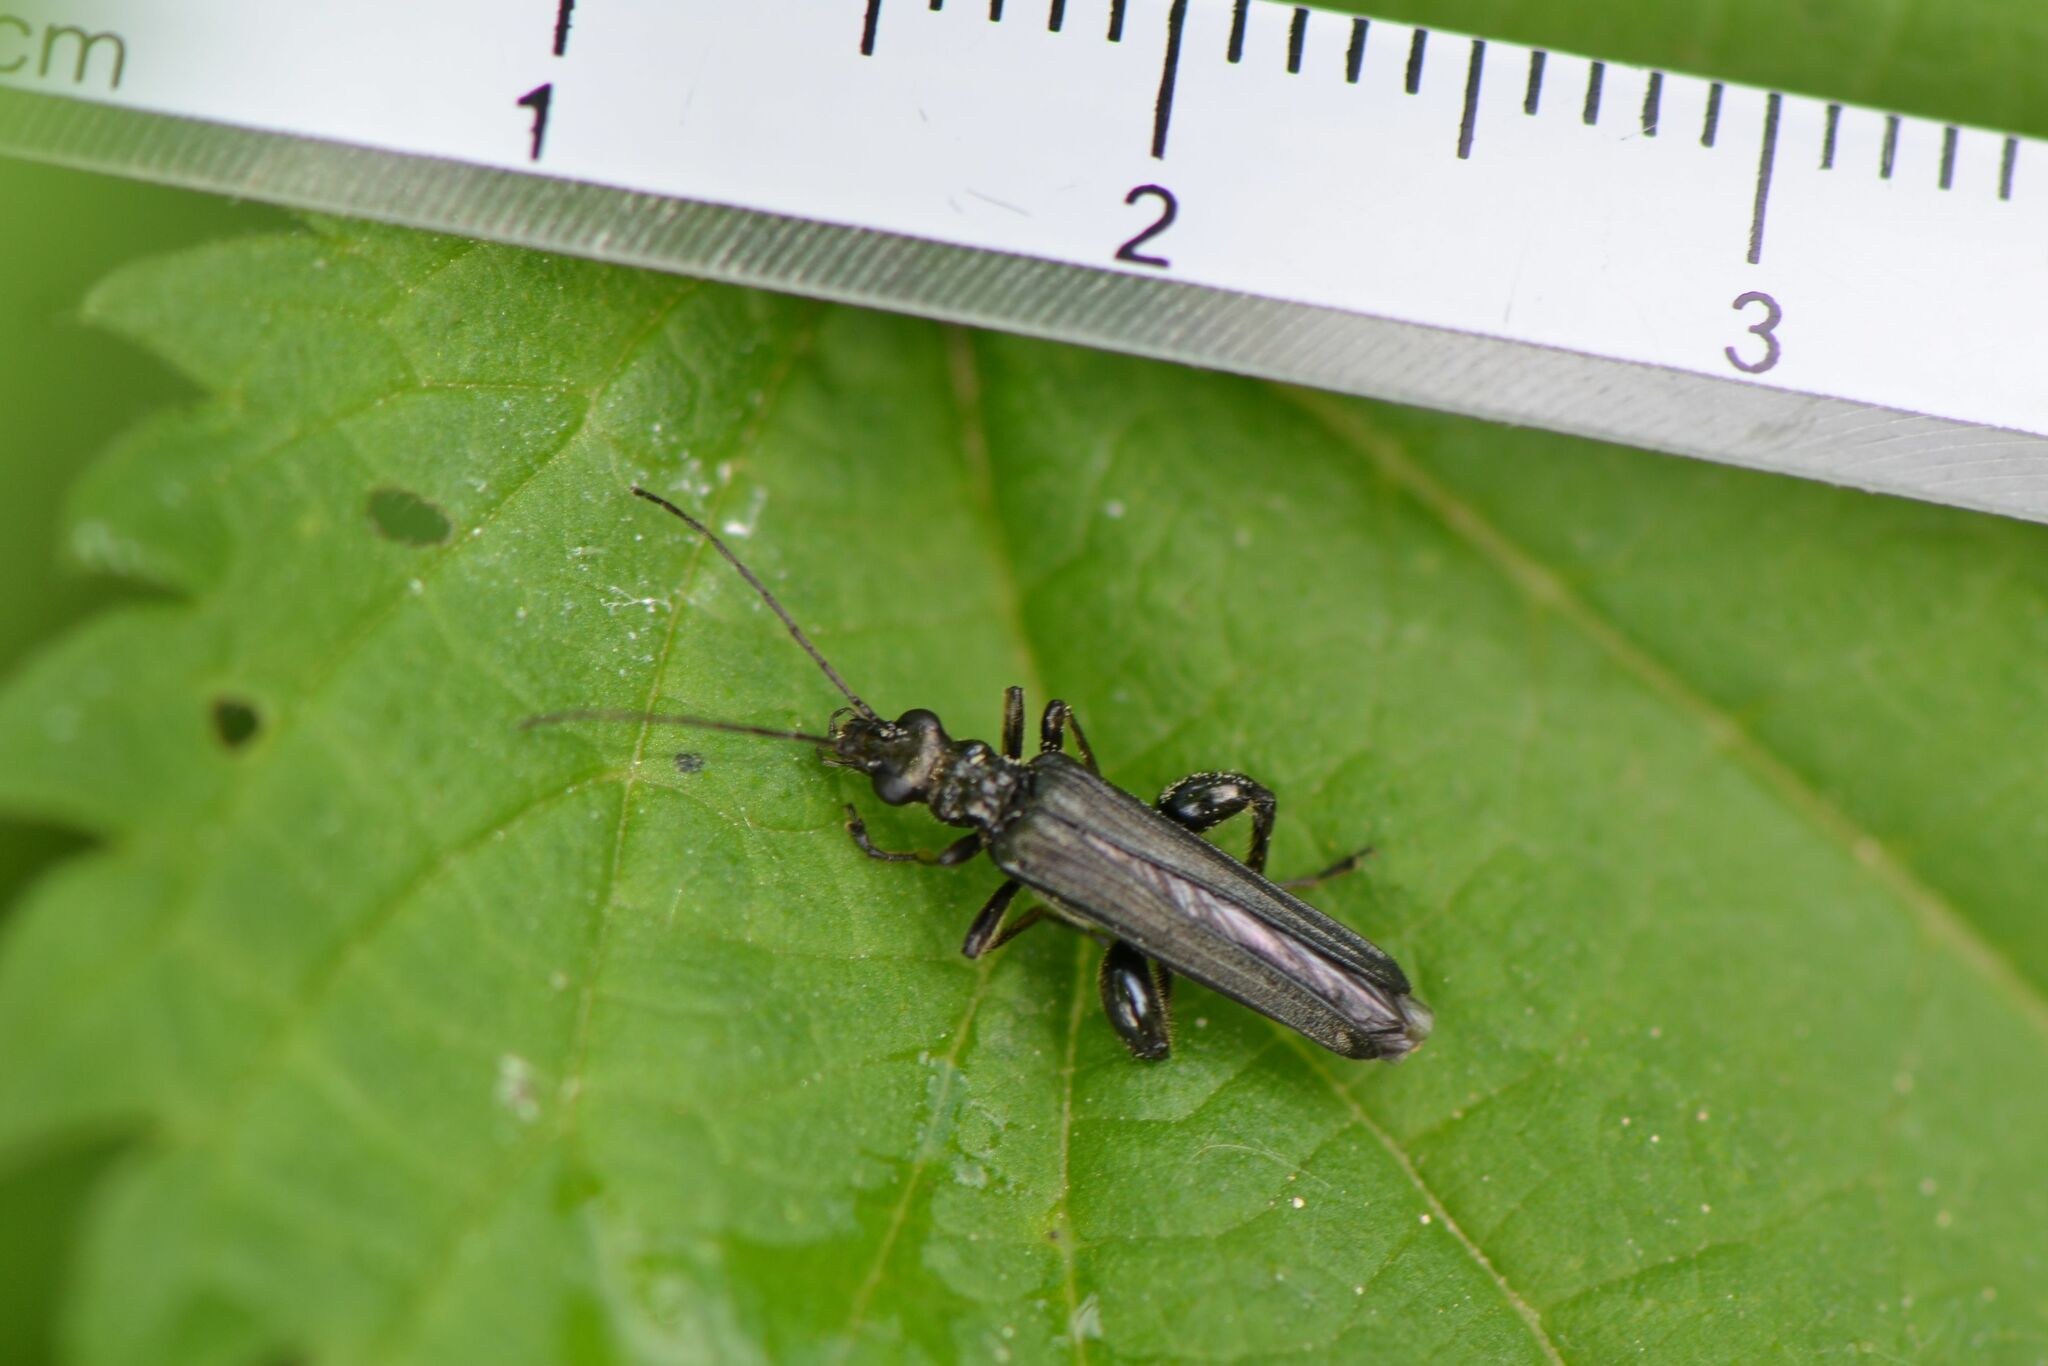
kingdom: Animalia
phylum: Arthropoda
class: Insecta
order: Coleoptera
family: Oedemeridae
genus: Oedemera
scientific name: Oedemera tristis
